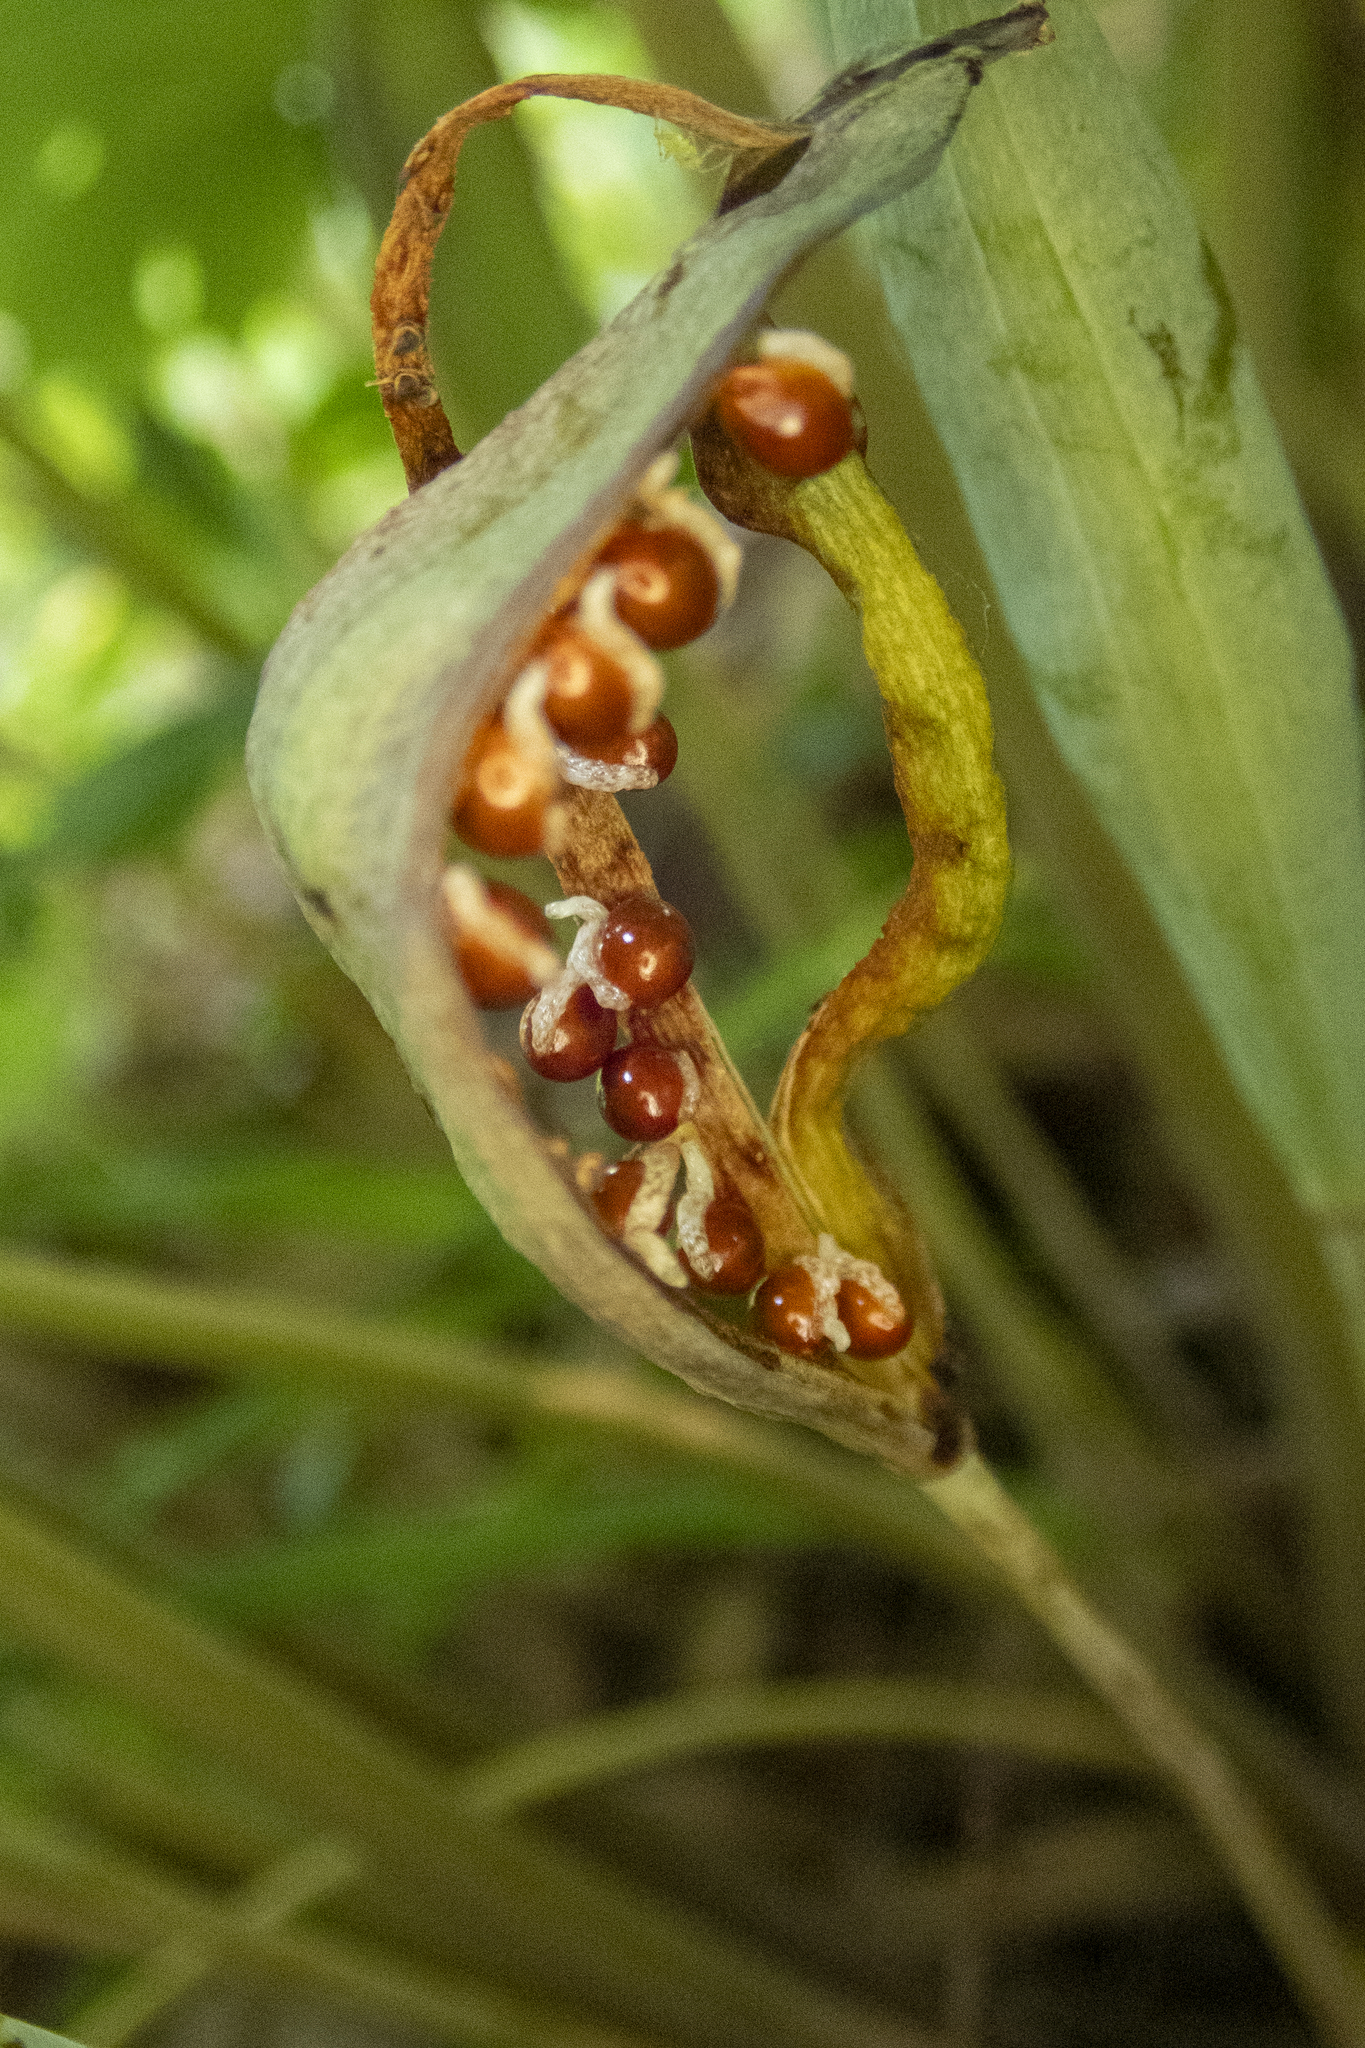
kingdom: Plantae
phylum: Tracheophyta
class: Magnoliopsida
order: Ranunculales
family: Papaveraceae
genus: Sanguinaria
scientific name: Sanguinaria canadensis
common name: Bloodroot
